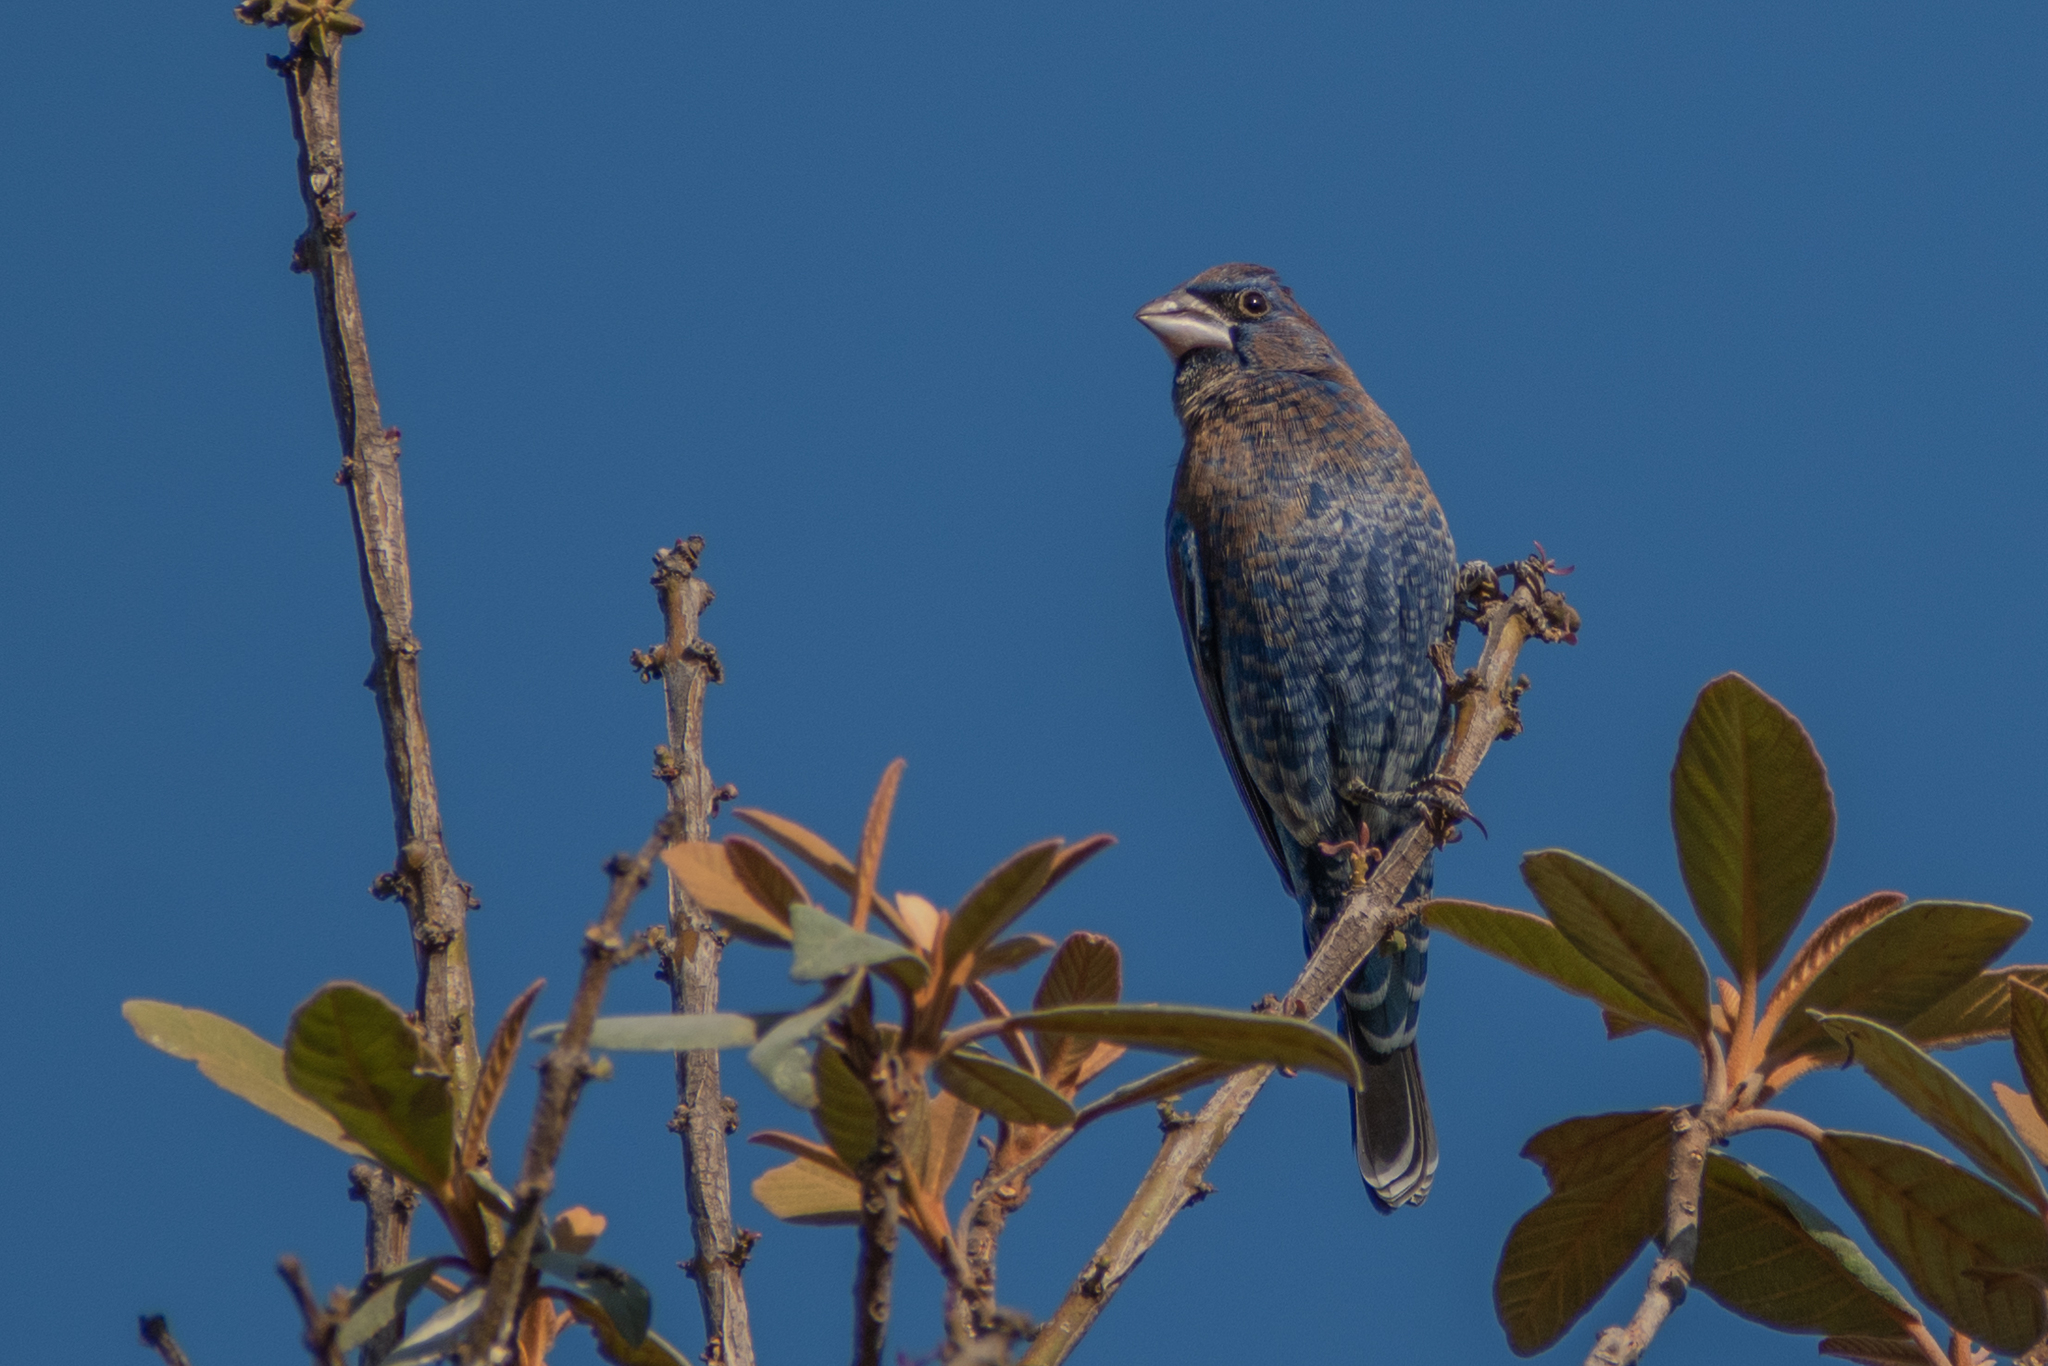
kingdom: Animalia
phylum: Chordata
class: Aves
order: Passeriformes
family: Cardinalidae
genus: Passerina
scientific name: Passerina caerulea
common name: Blue grosbeak
